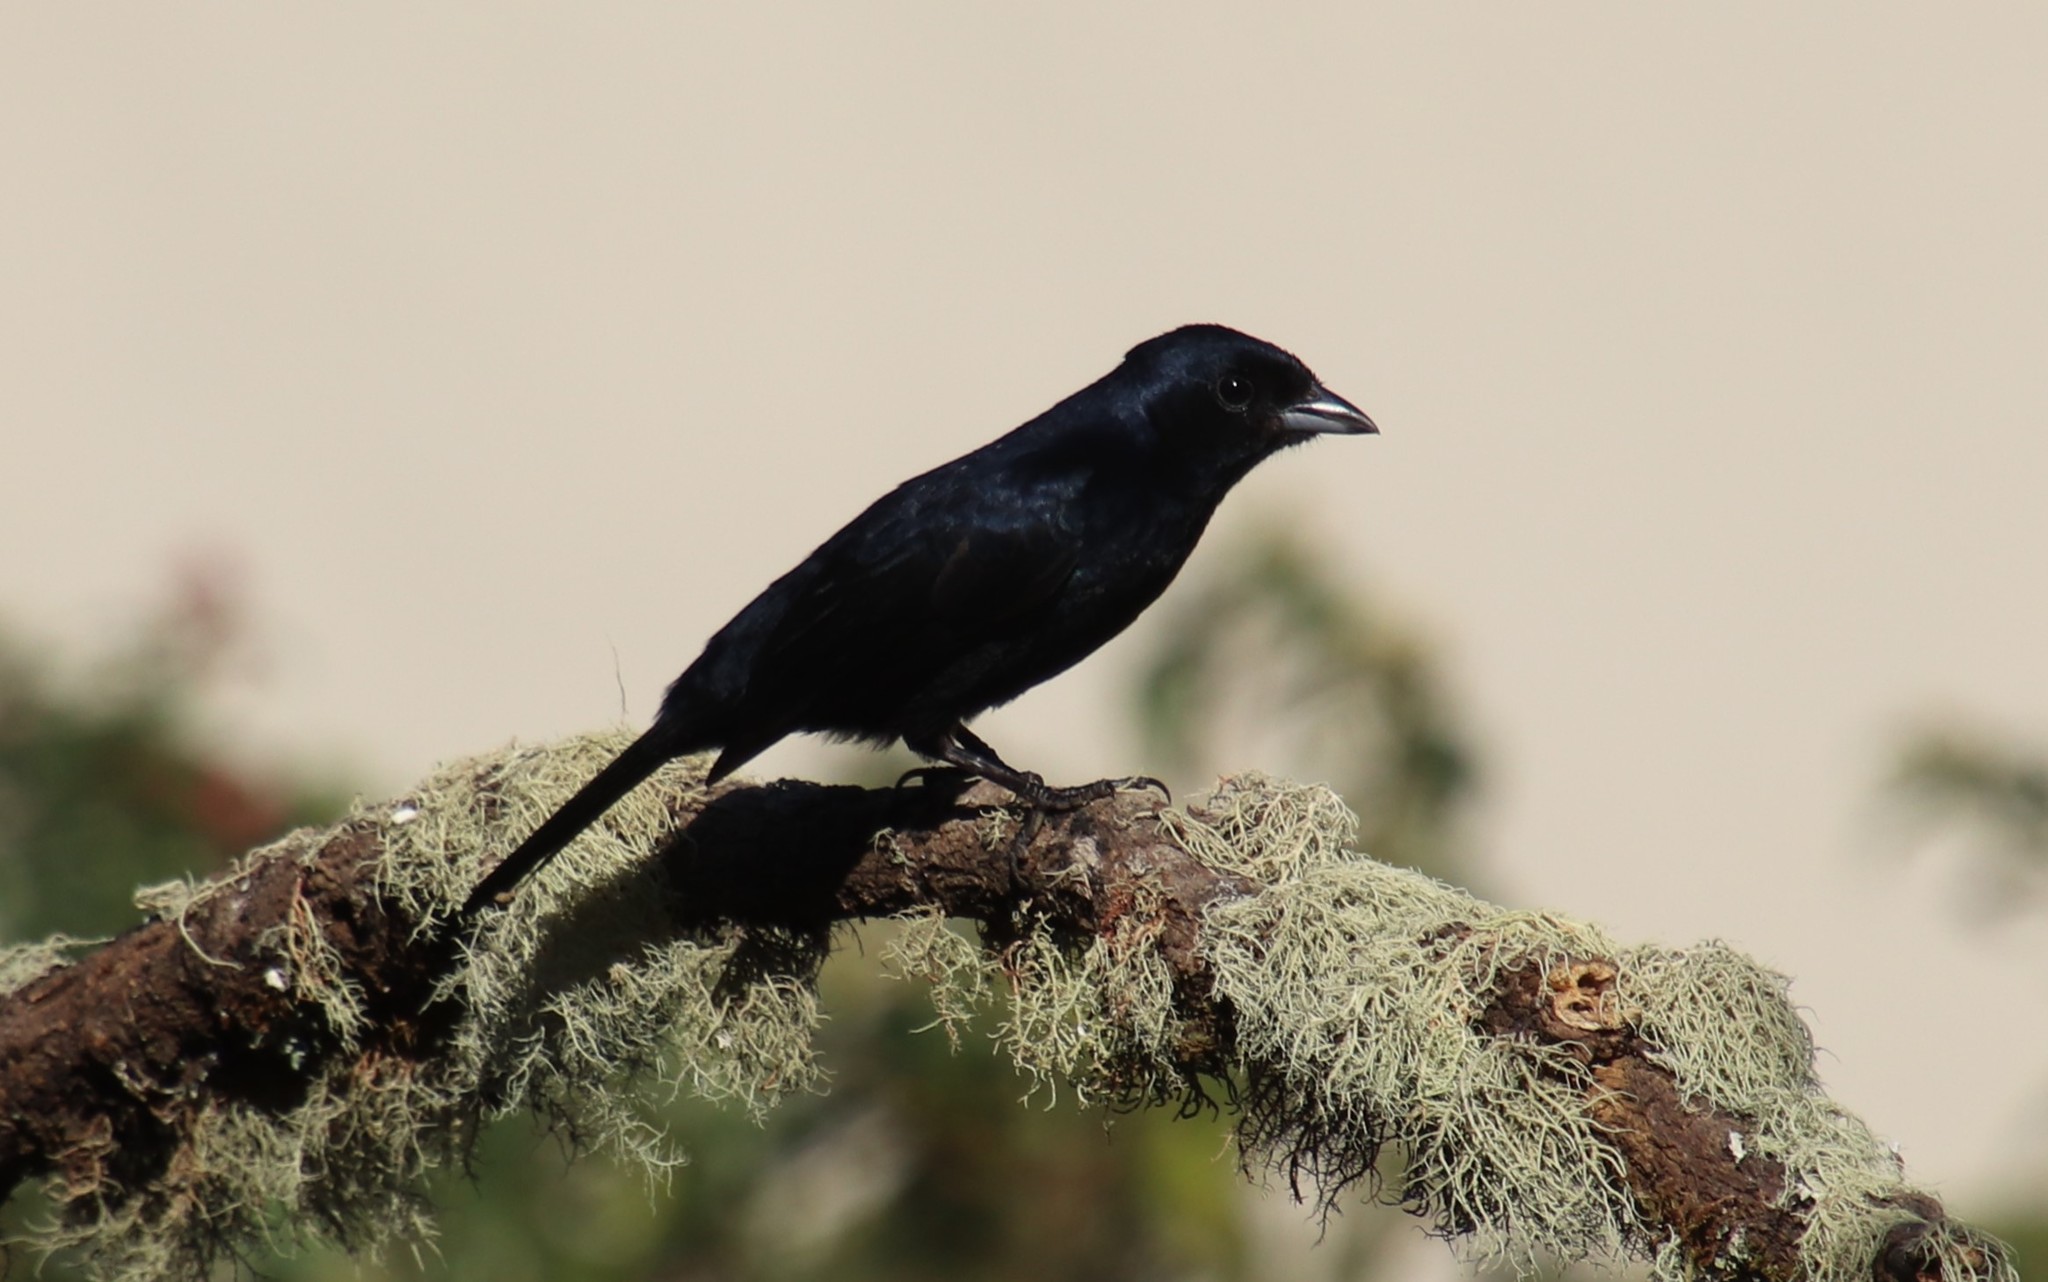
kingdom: Animalia
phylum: Chordata
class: Aves
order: Passeriformes
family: Thraupidae
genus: Tachyphonus
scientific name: Tachyphonus coronatus
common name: Ruby-crowned tanager
